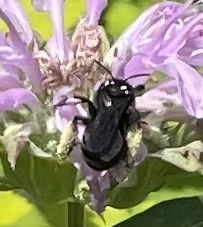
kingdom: Animalia
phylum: Arthropoda
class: Insecta
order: Hymenoptera
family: Apidae
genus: Melissodes
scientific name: Melissodes bimaculatus
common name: Two-spotted long-horned bee
